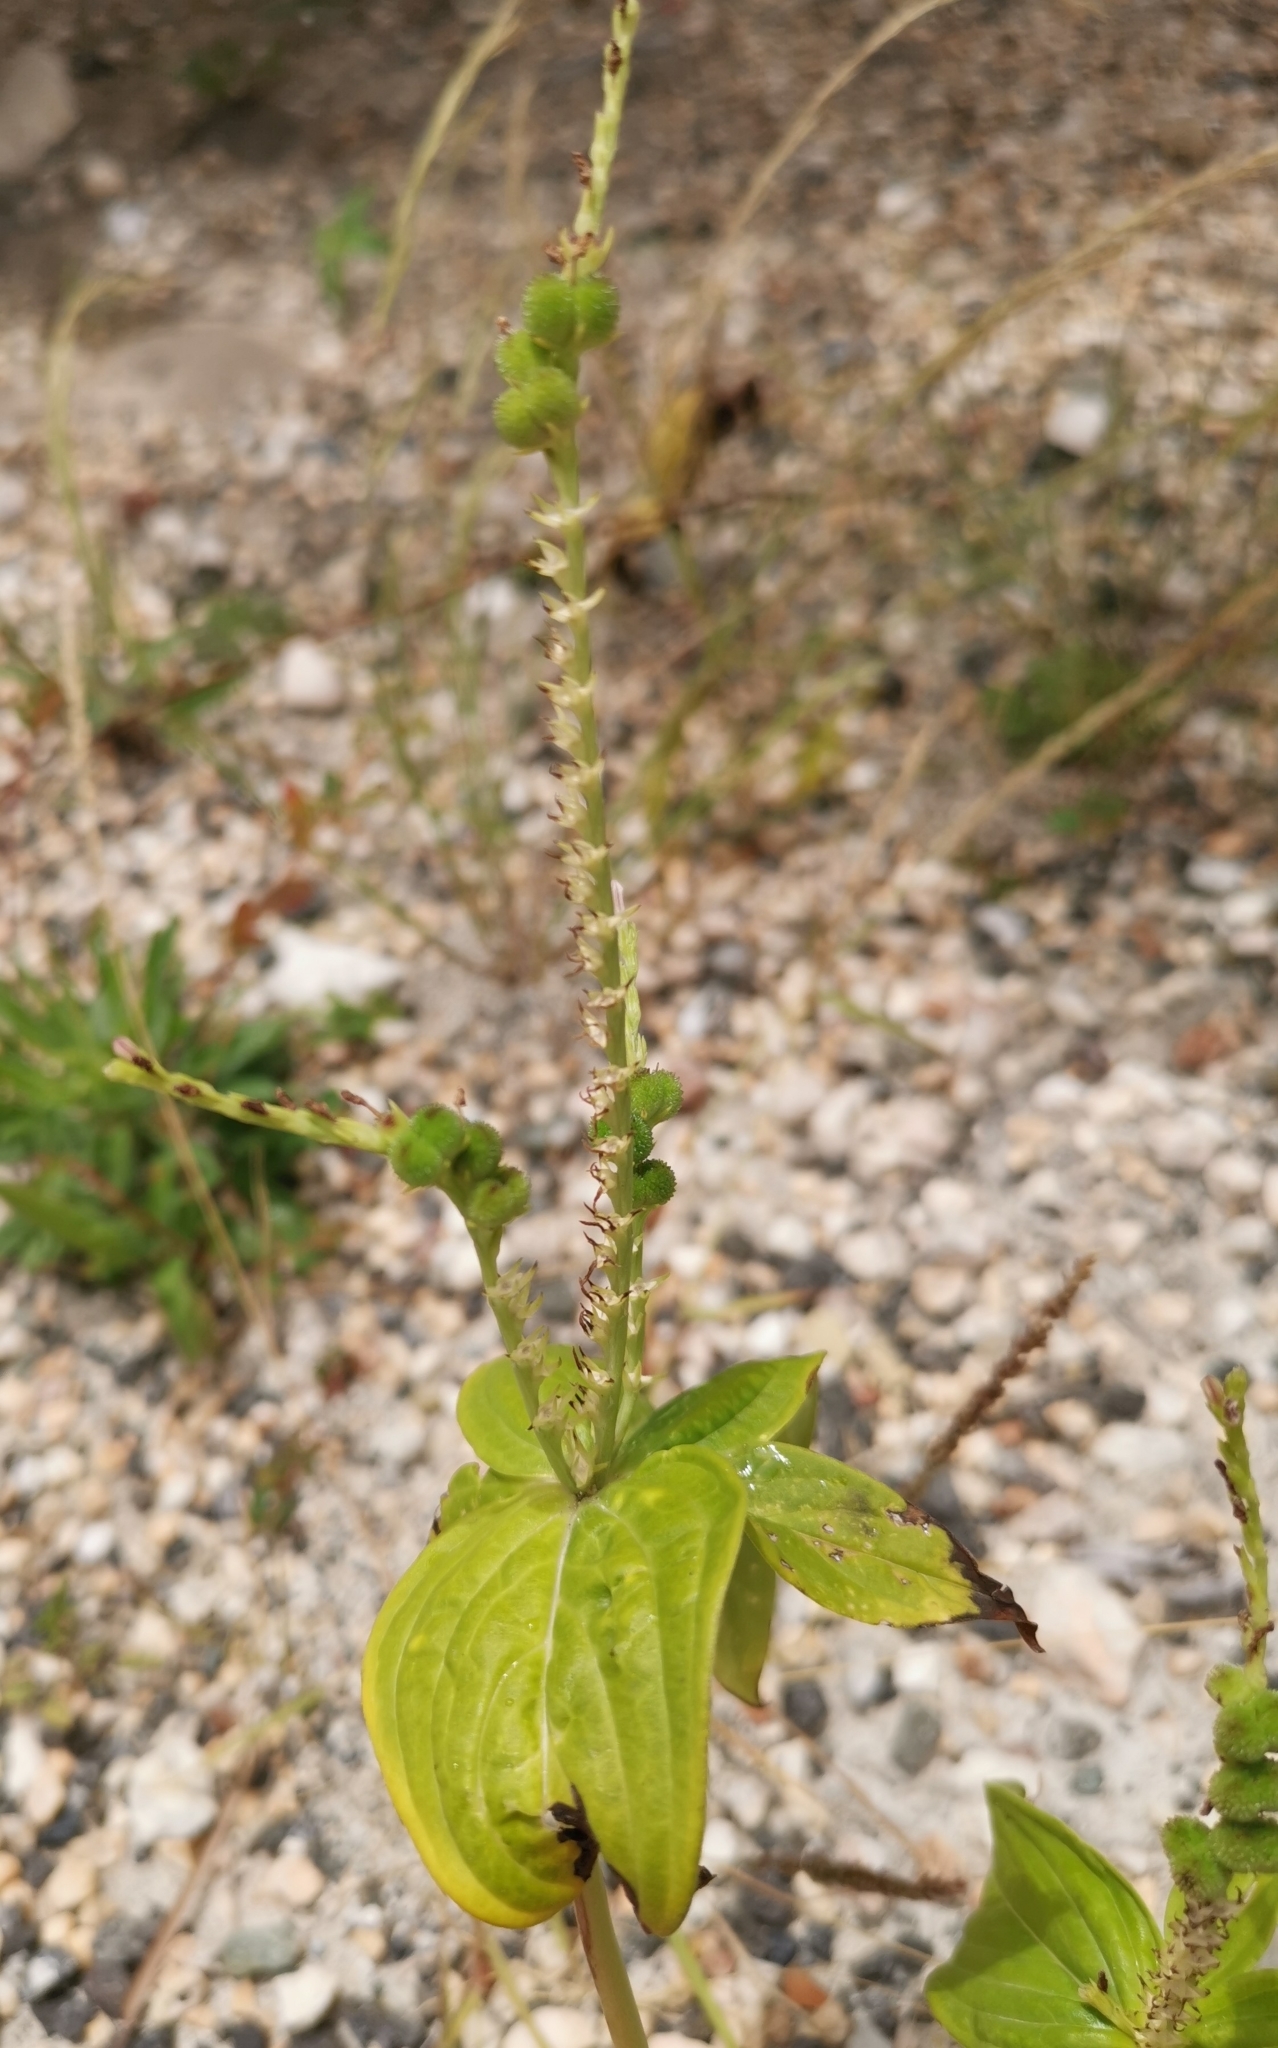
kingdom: Plantae
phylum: Tracheophyta
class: Magnoliopsida
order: Gentianales
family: Loganiaceae
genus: Spigelia
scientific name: Spigelia anthelmia
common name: West indian-pink
